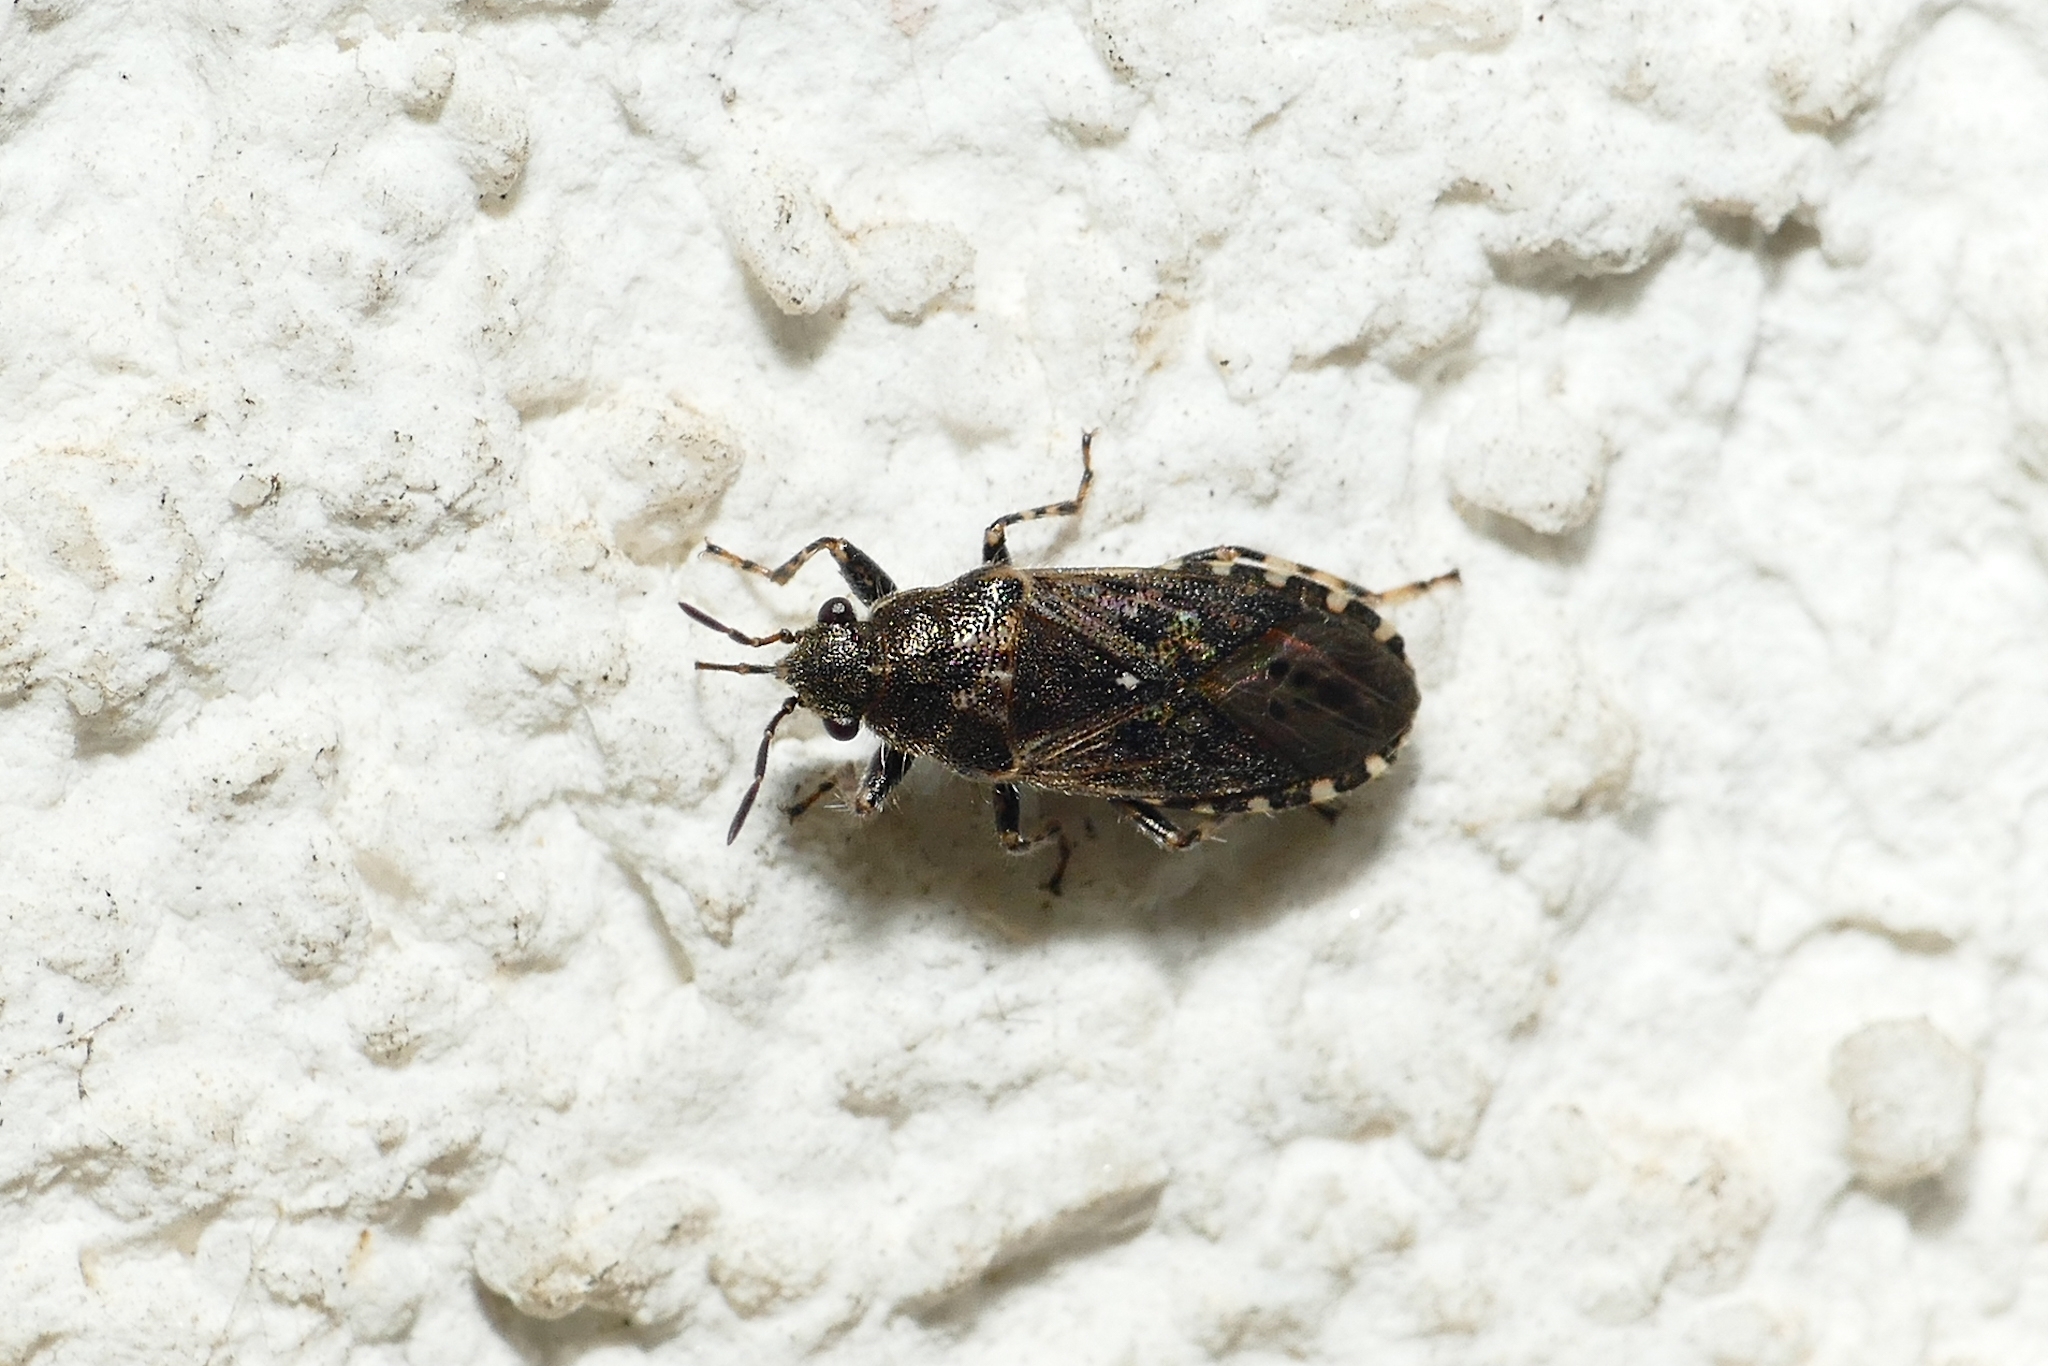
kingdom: Animalia
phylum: Arthropoda
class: Insecta
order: Hemiptera
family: Heterogastridae
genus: Heterogaster
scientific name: Heterogaster urticae
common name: Seed bug
